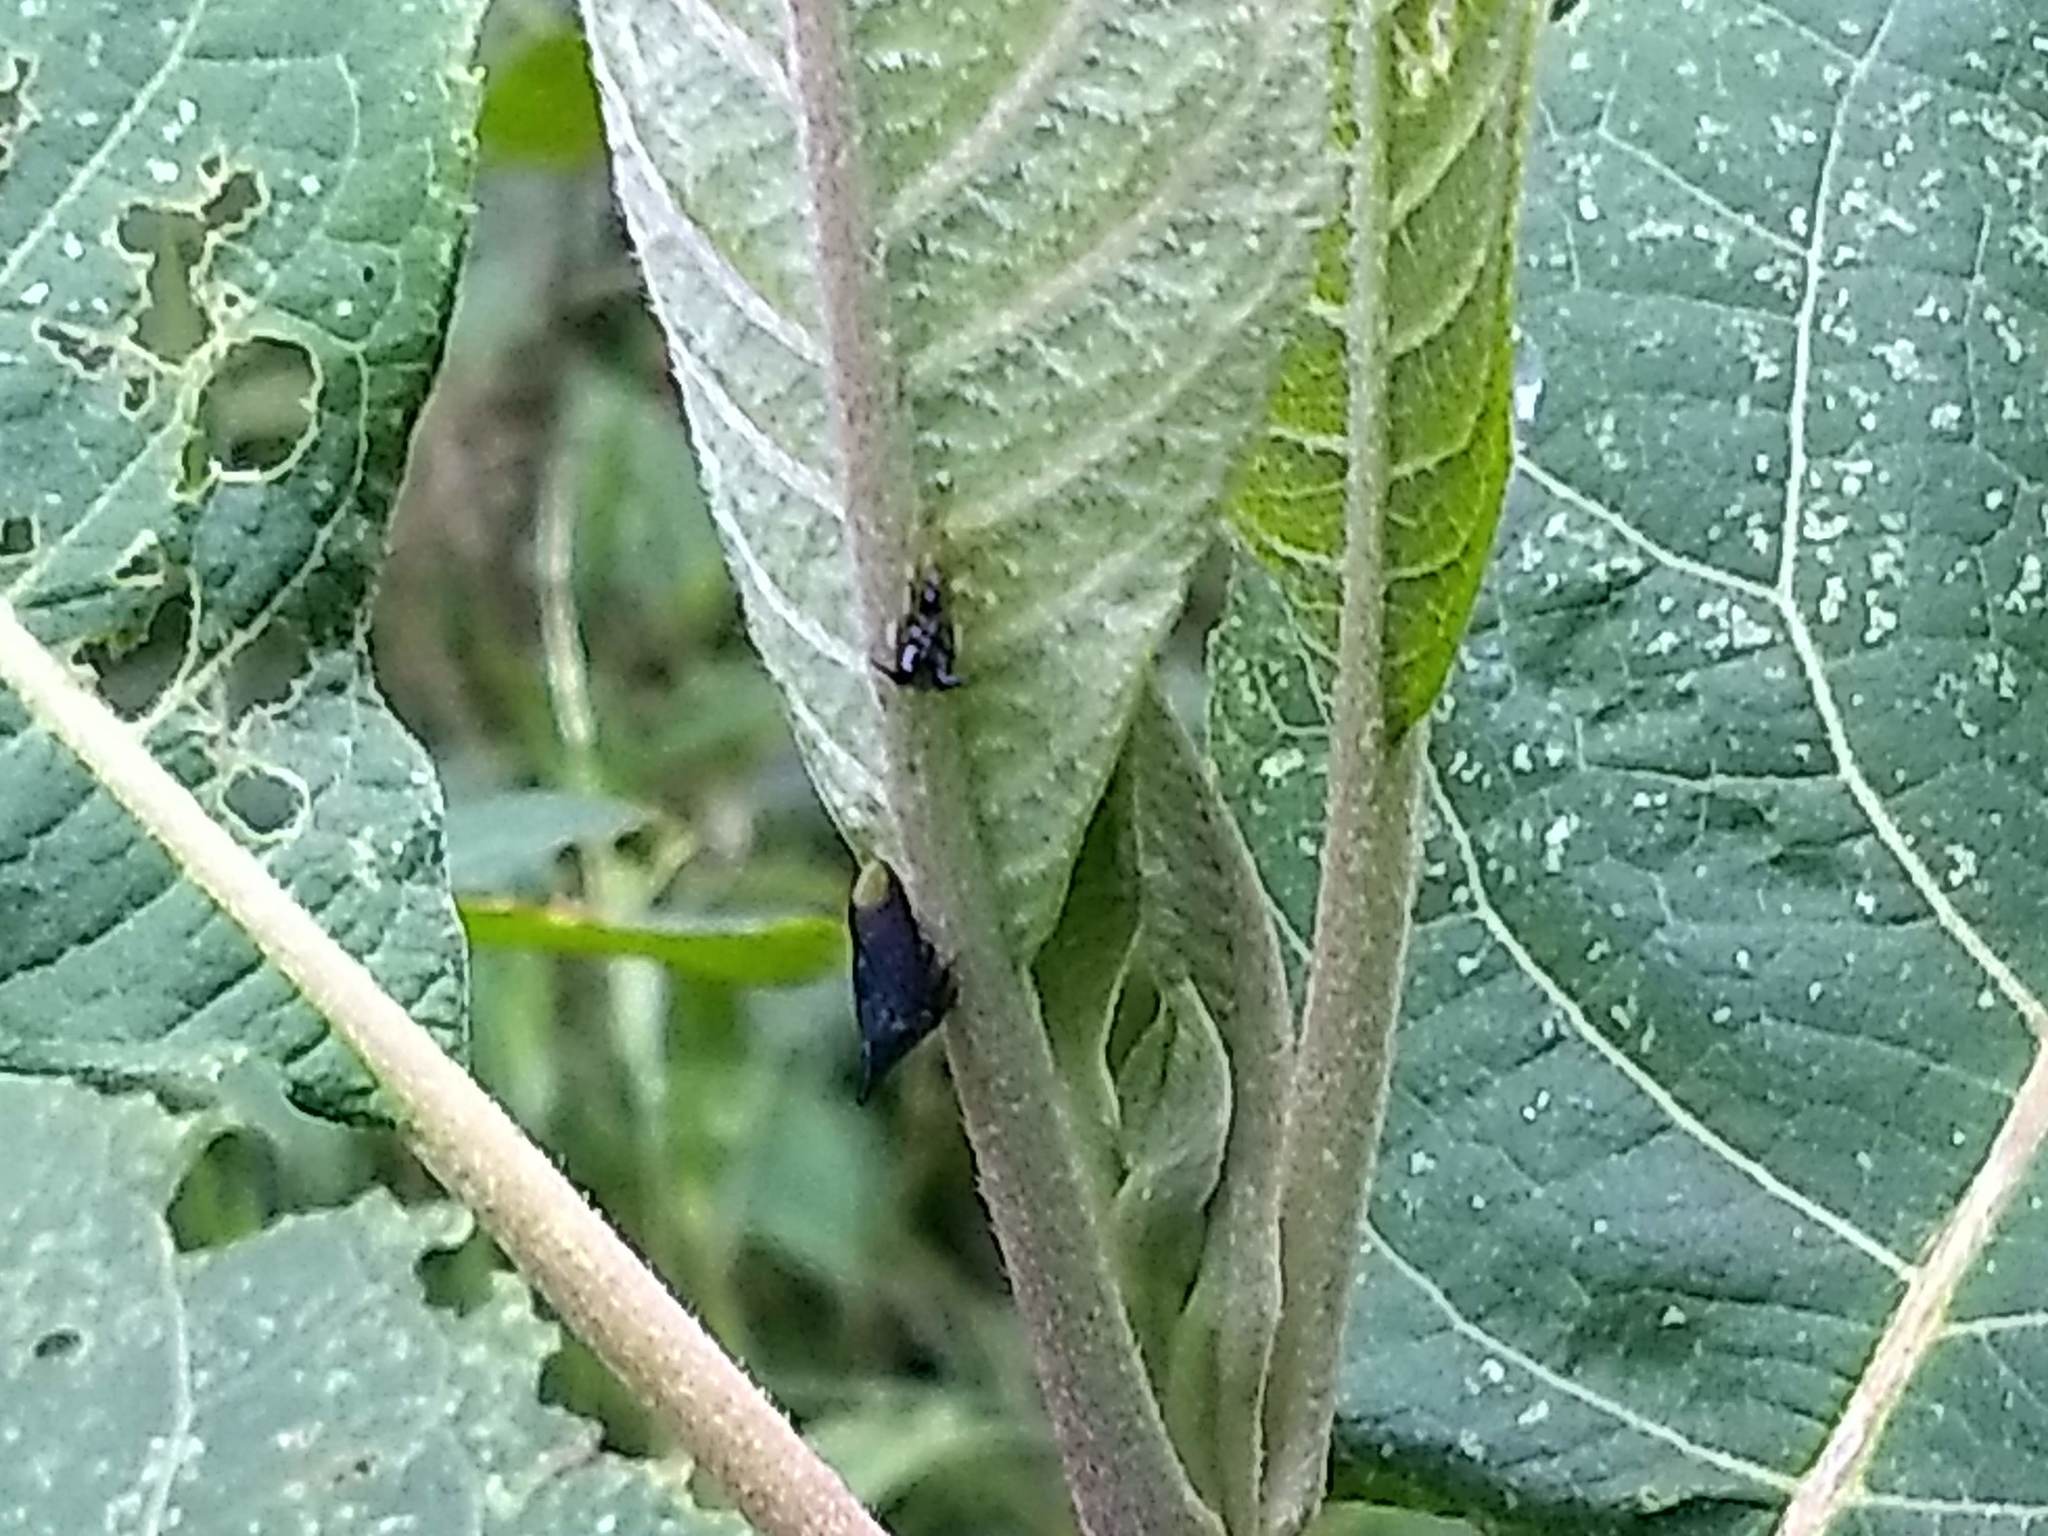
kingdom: Animalia
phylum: Arthropoda
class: Insecta
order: Hemiptera
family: Membracidae
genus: Enchenopa
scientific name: Enchenopa monoceros
